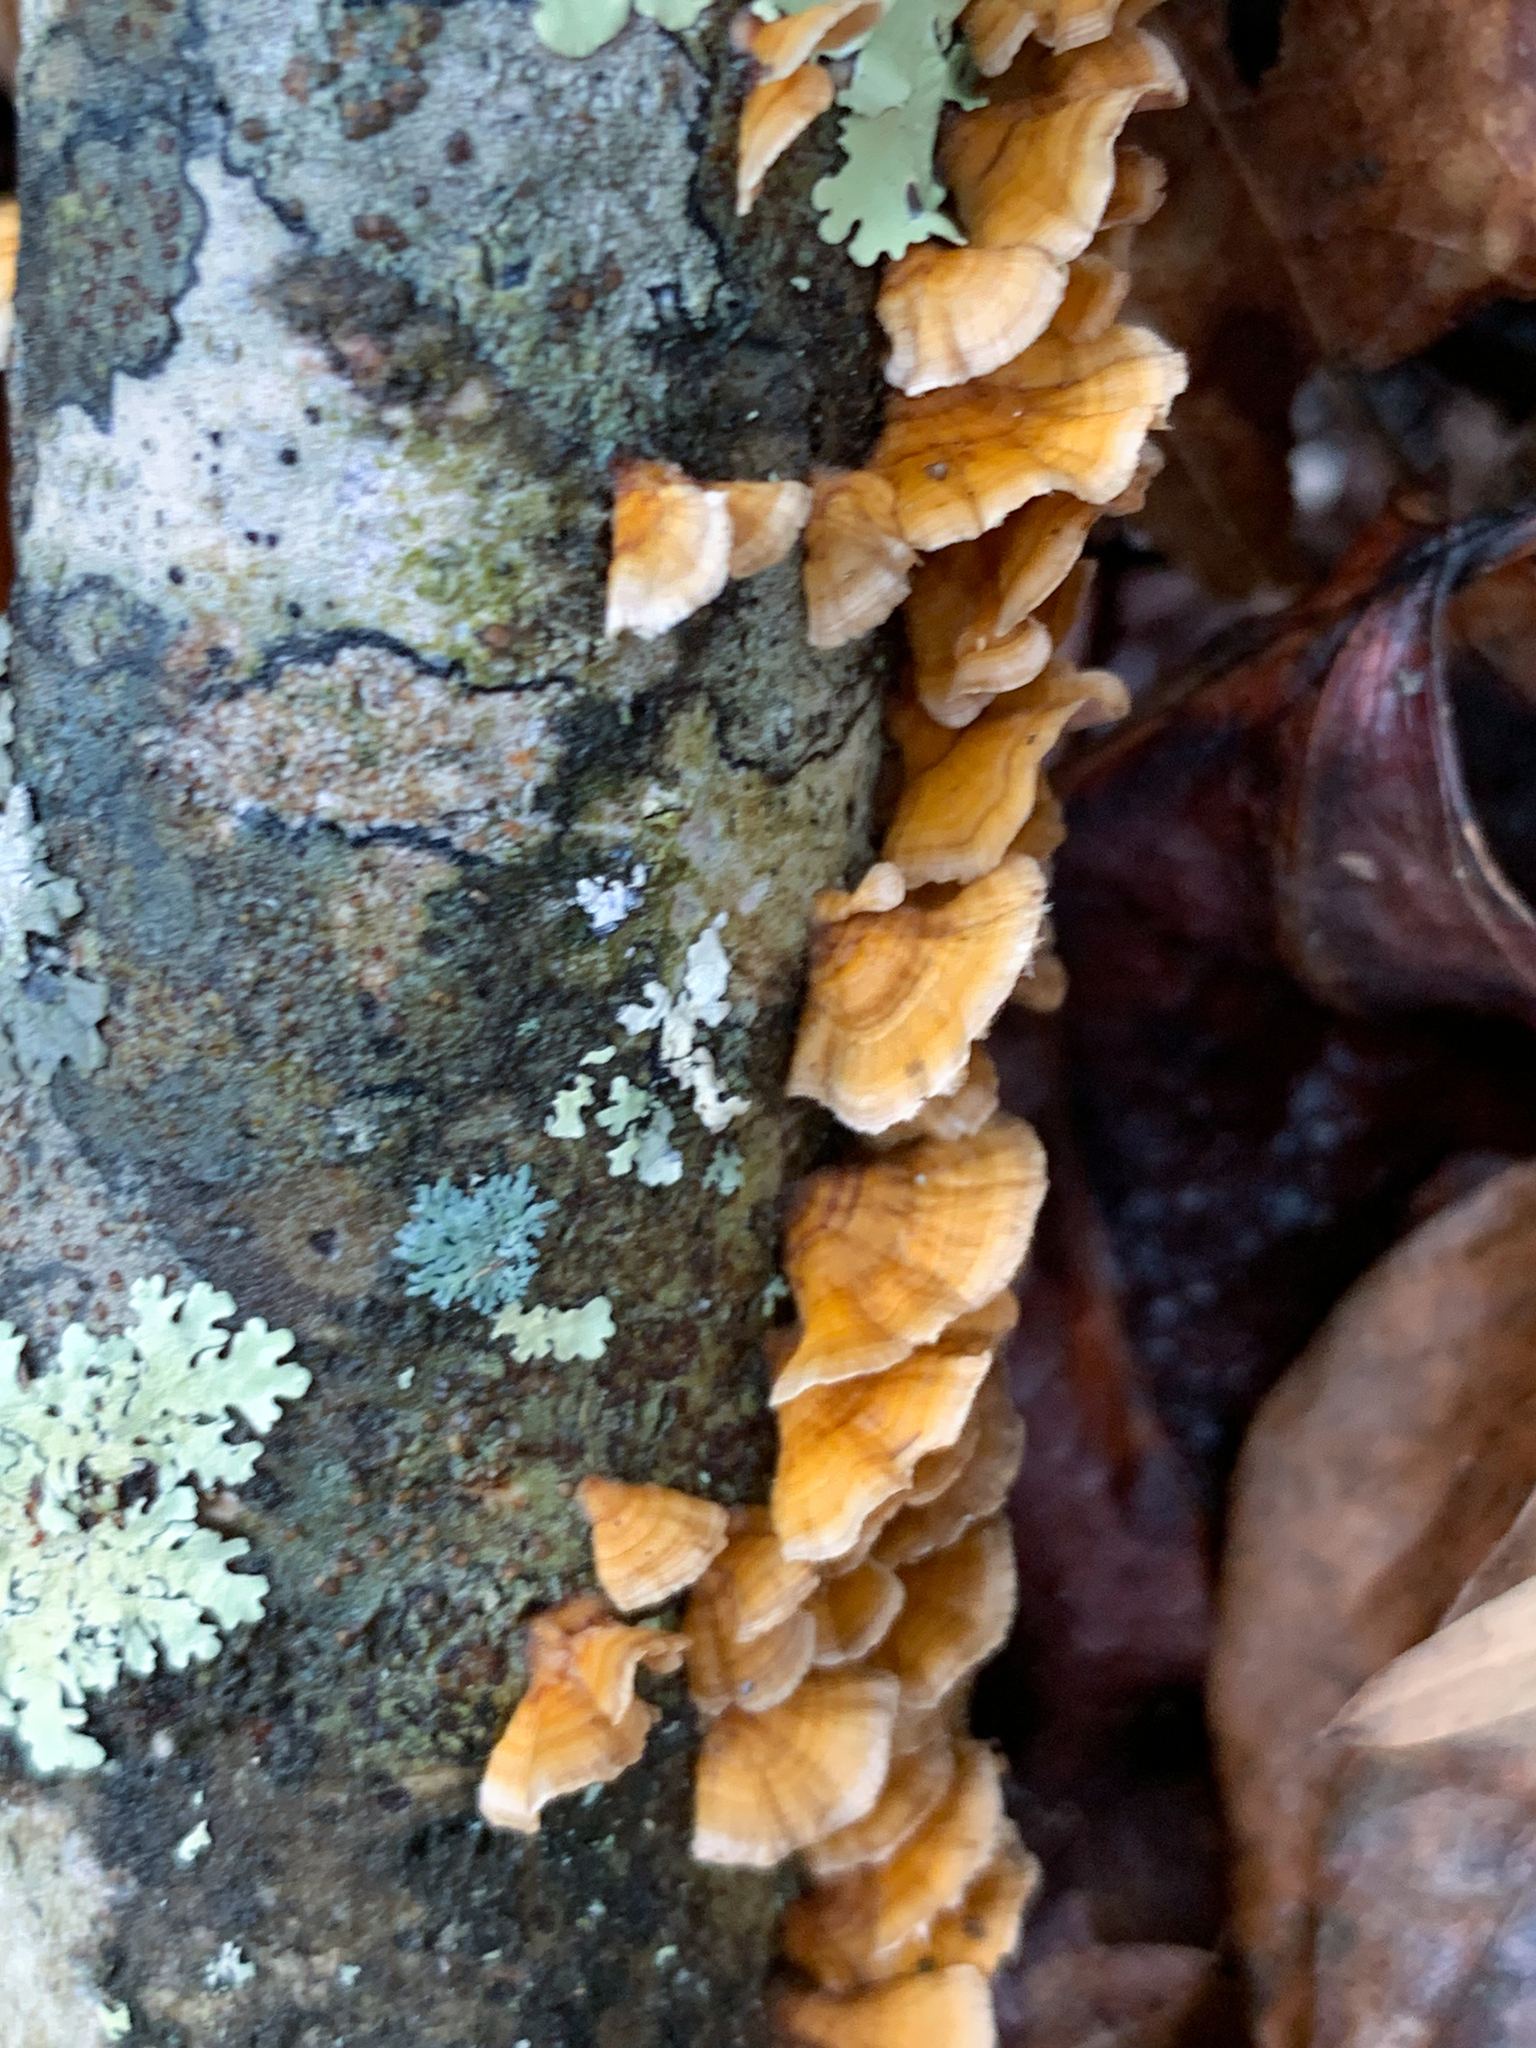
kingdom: Fungi
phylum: Basidiomycota
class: Agaricomycetes
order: Russulales
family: Stereaceae
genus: Stereum
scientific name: Stereum complicatum
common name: Crowded parchment
